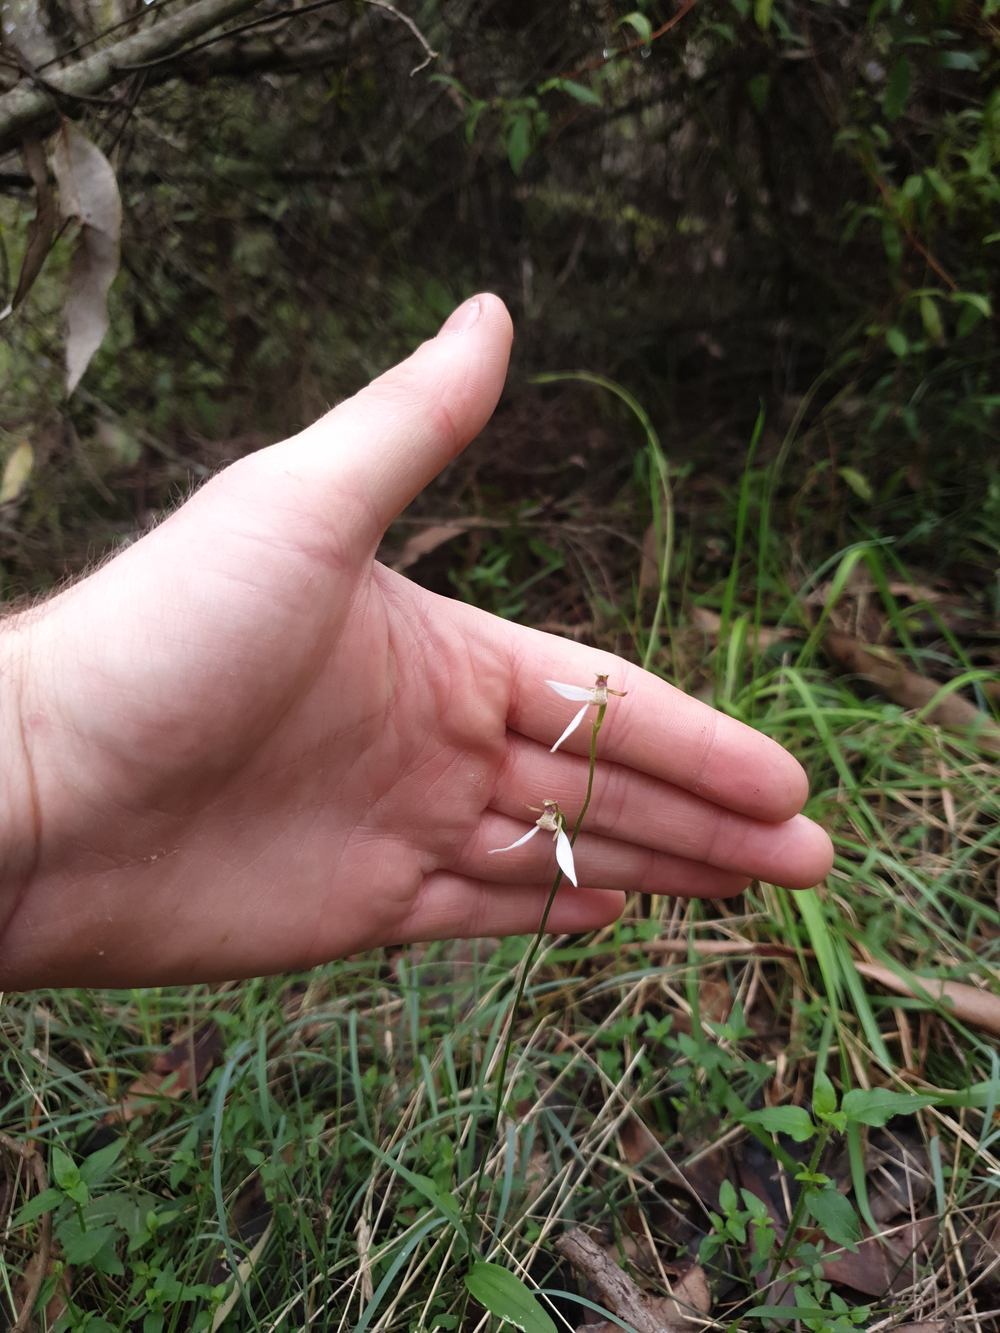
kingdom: Plantae
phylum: Tracheophyta
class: Liliopsida
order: Asparagales
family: Orchidaceae
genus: Eriochilus
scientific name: Eriochilus dilatatus
